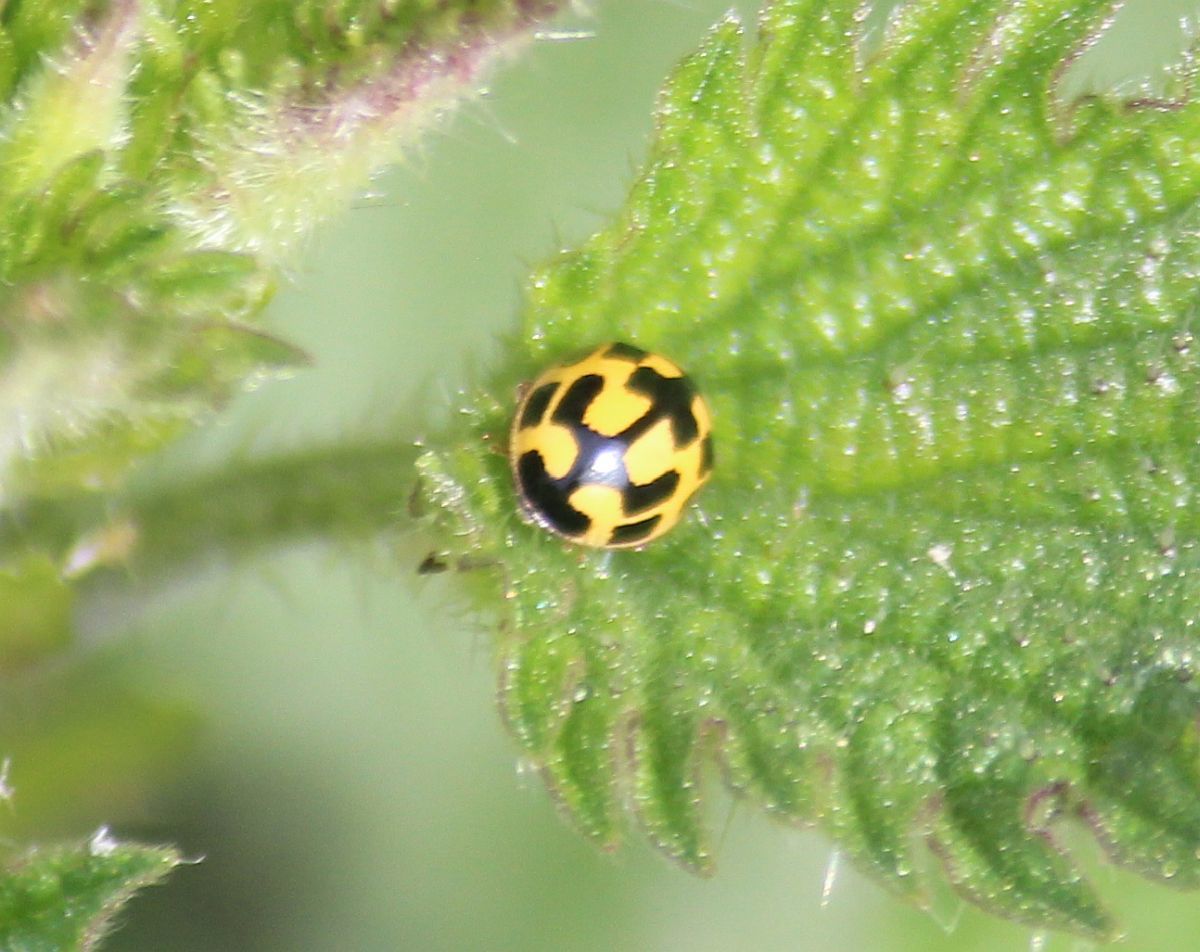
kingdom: Animalia
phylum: Arthropoda
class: Insecta
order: Coleoptera
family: Coccinellidae
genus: Propylaea
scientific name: Propylaea quatuordecimpunctata
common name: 14-spotted ladybird beetle
